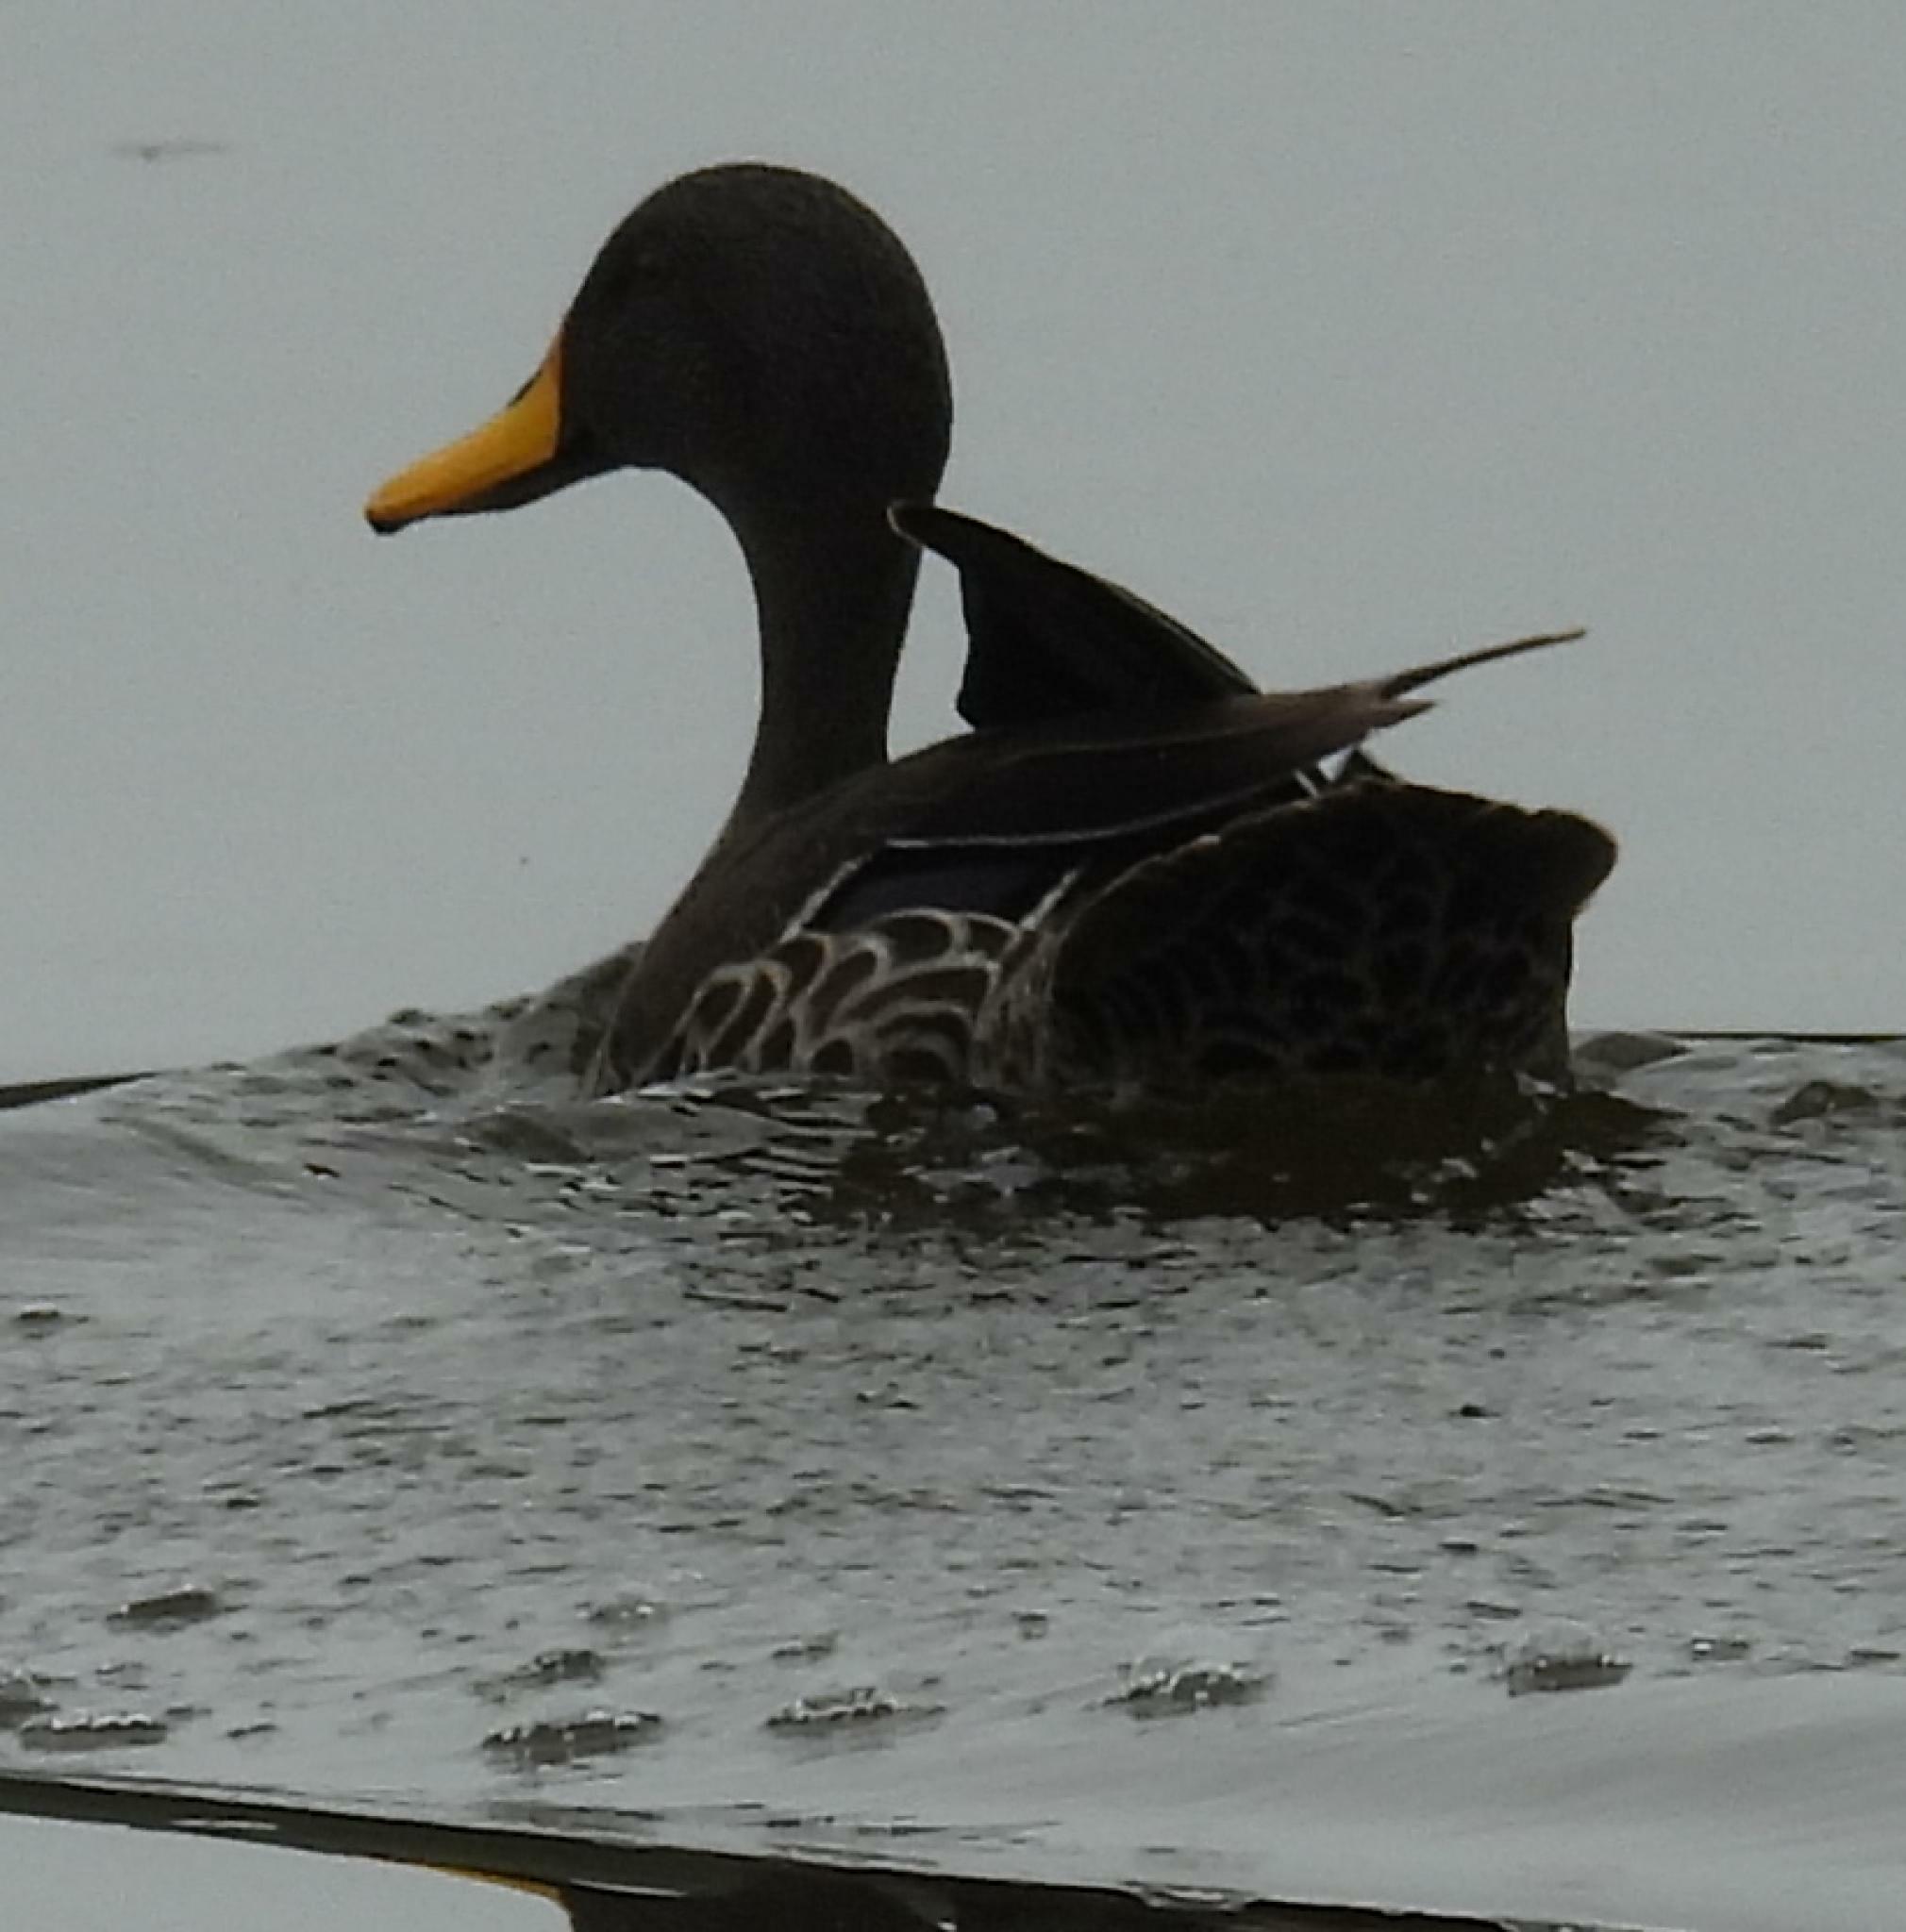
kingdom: Animalia
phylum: Chordata
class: Aves
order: Anseriformes
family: Anatidae
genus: Anas
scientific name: Anas undulata
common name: Yellow-billed duck
